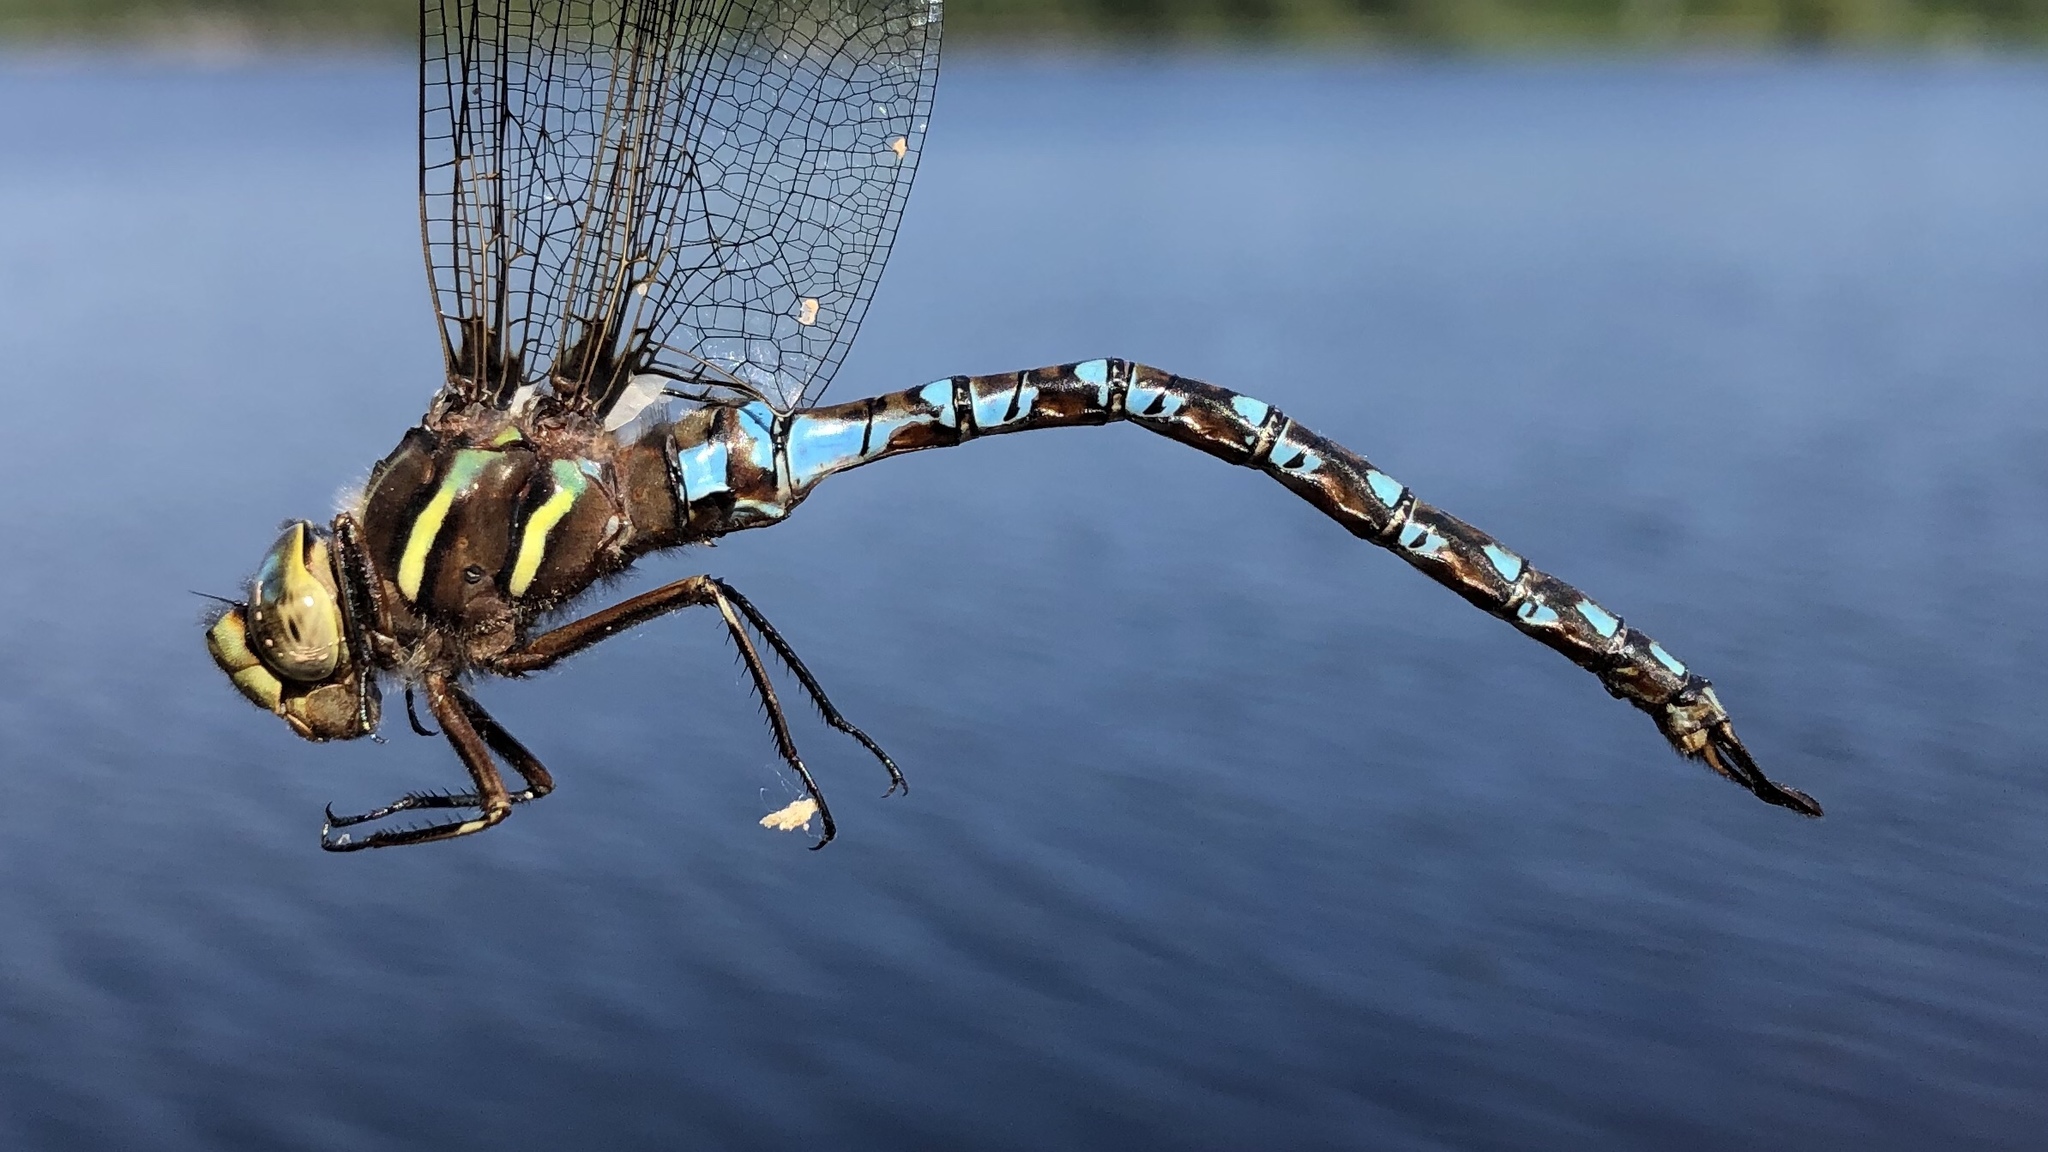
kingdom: Animalia
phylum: Arthropoda
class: Insecta
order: Odonata
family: Aeshnidae
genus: Basiaeschna
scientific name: Basiaeschna janata
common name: Springtime darner
